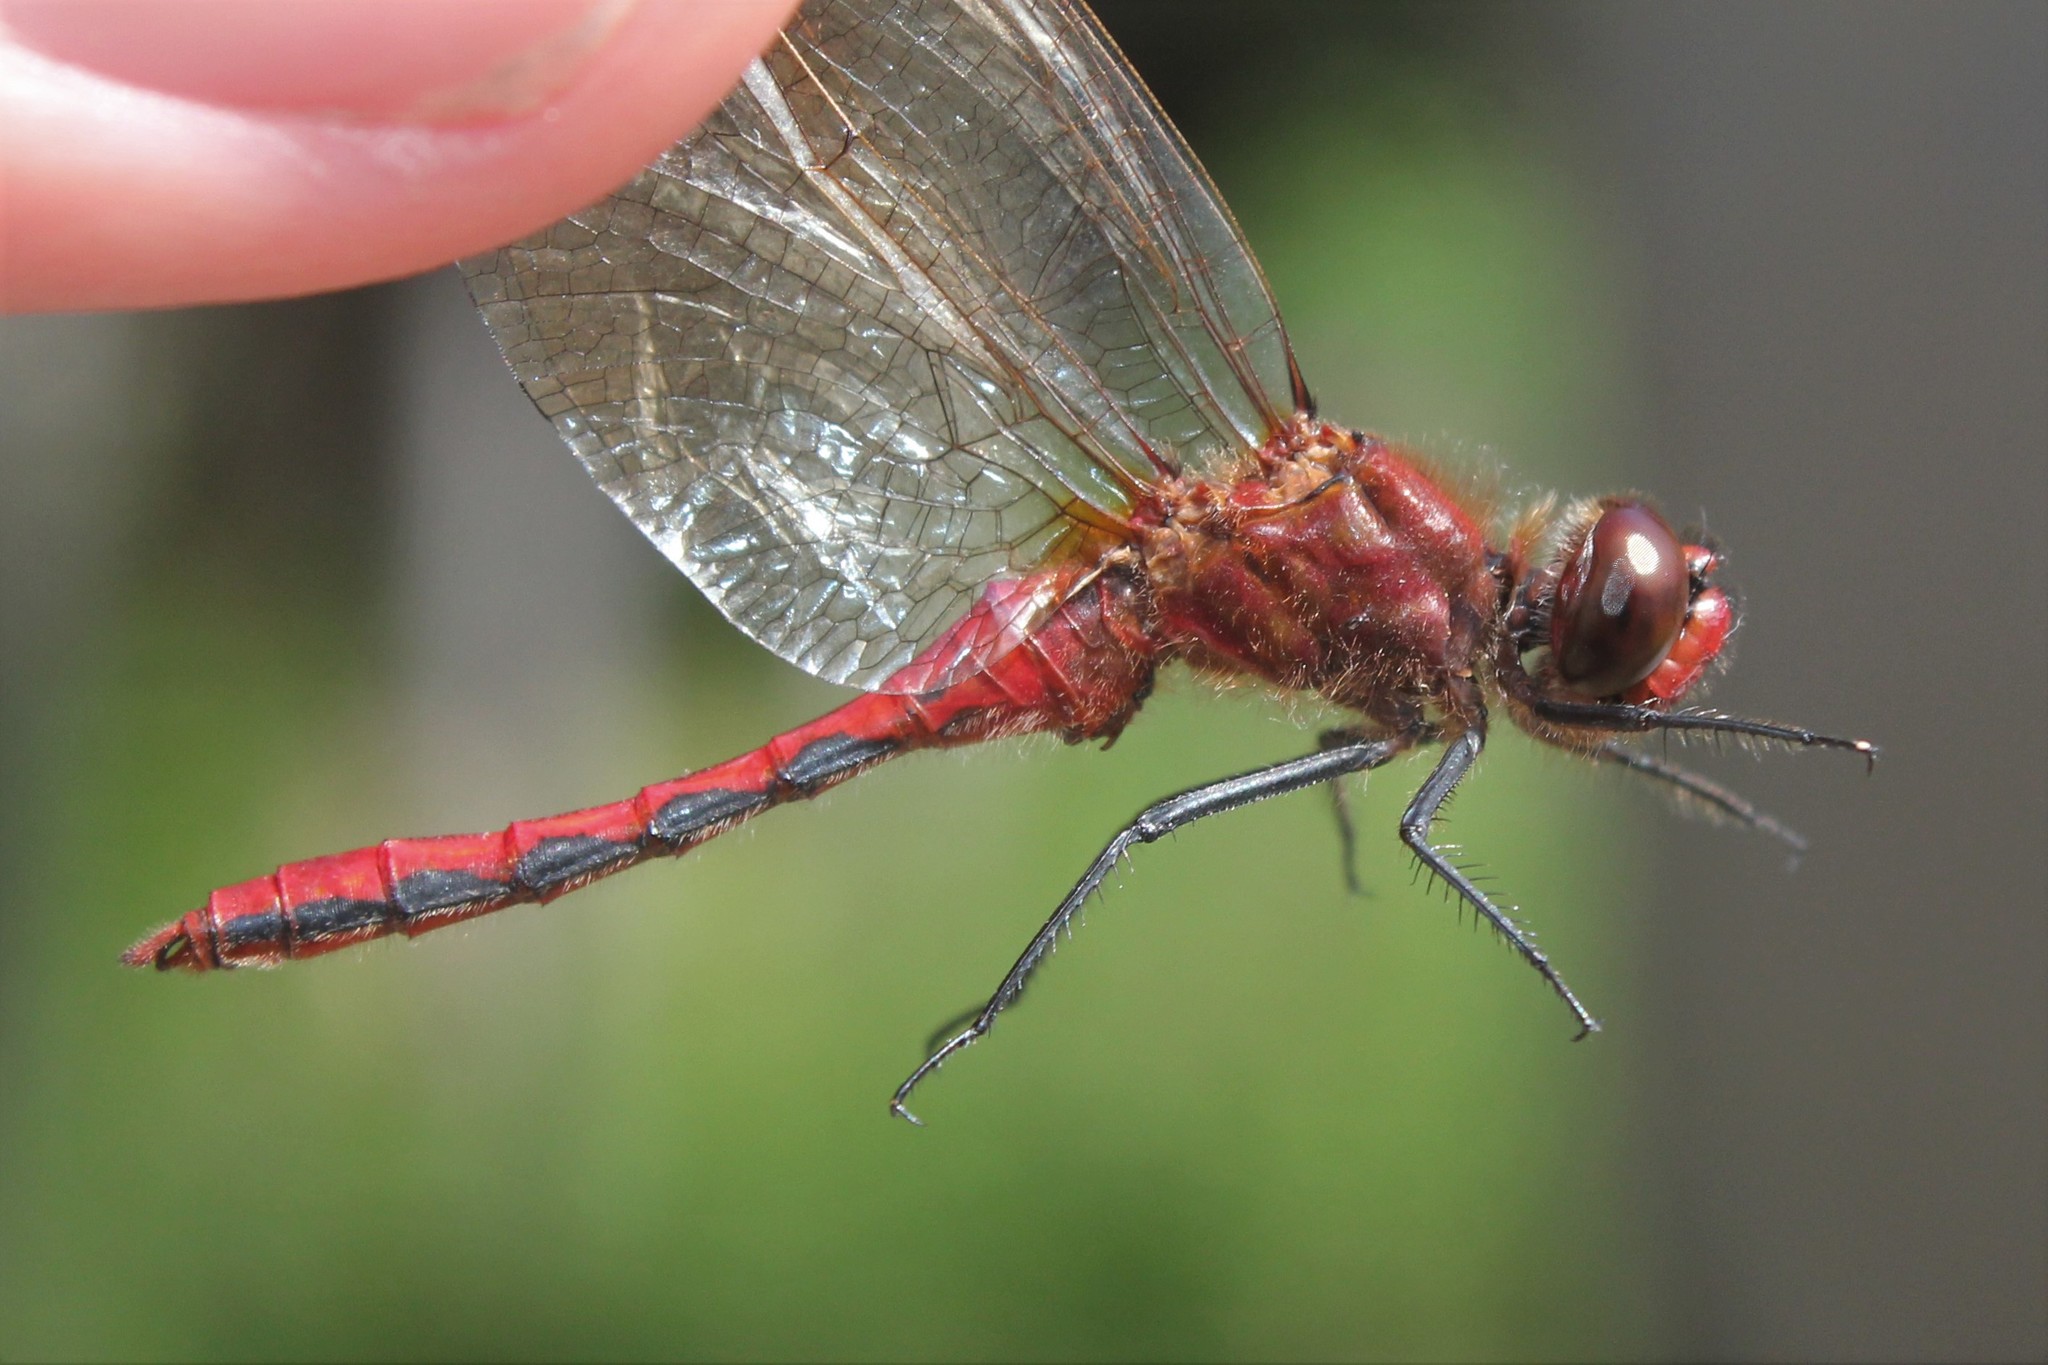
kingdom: Animalia
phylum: Arthropoda
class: Insecta
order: Odonata
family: Libellulidae
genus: Sympetrum
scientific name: Sympetrum internum
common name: Cherry-faced meadowhawk
